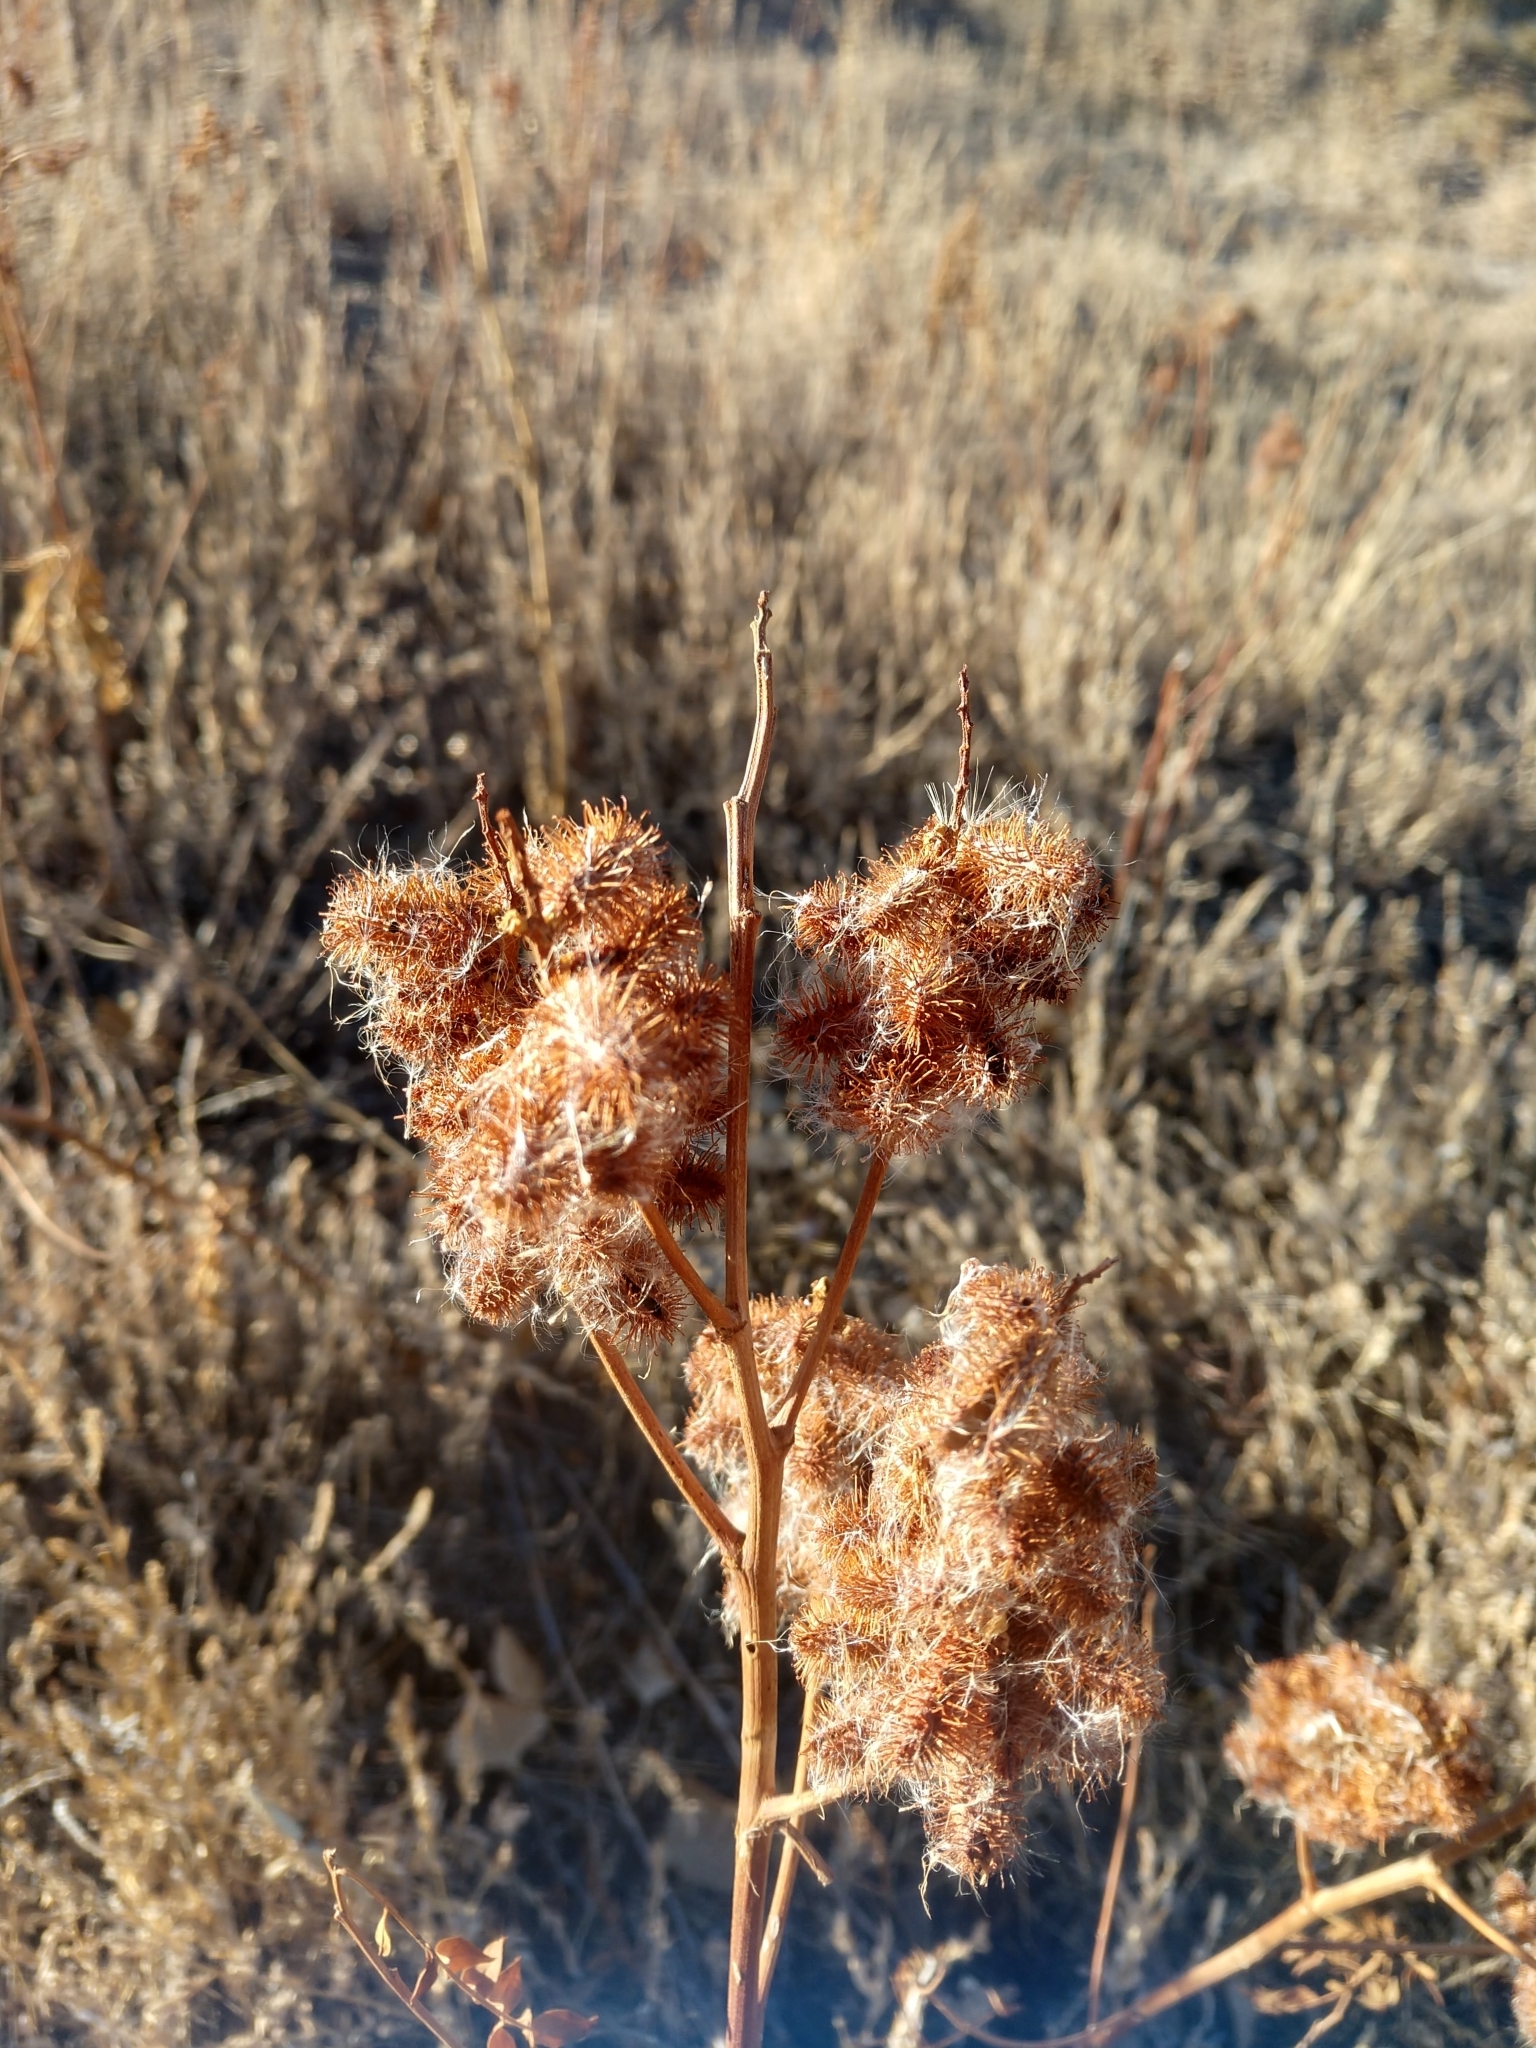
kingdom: Plantae
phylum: Tracheophyta
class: Magnoliopsida
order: Fabales
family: Fabaceae
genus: Glycyrrhiza
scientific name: Glycyrrhiza lepidota
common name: American liquorice
